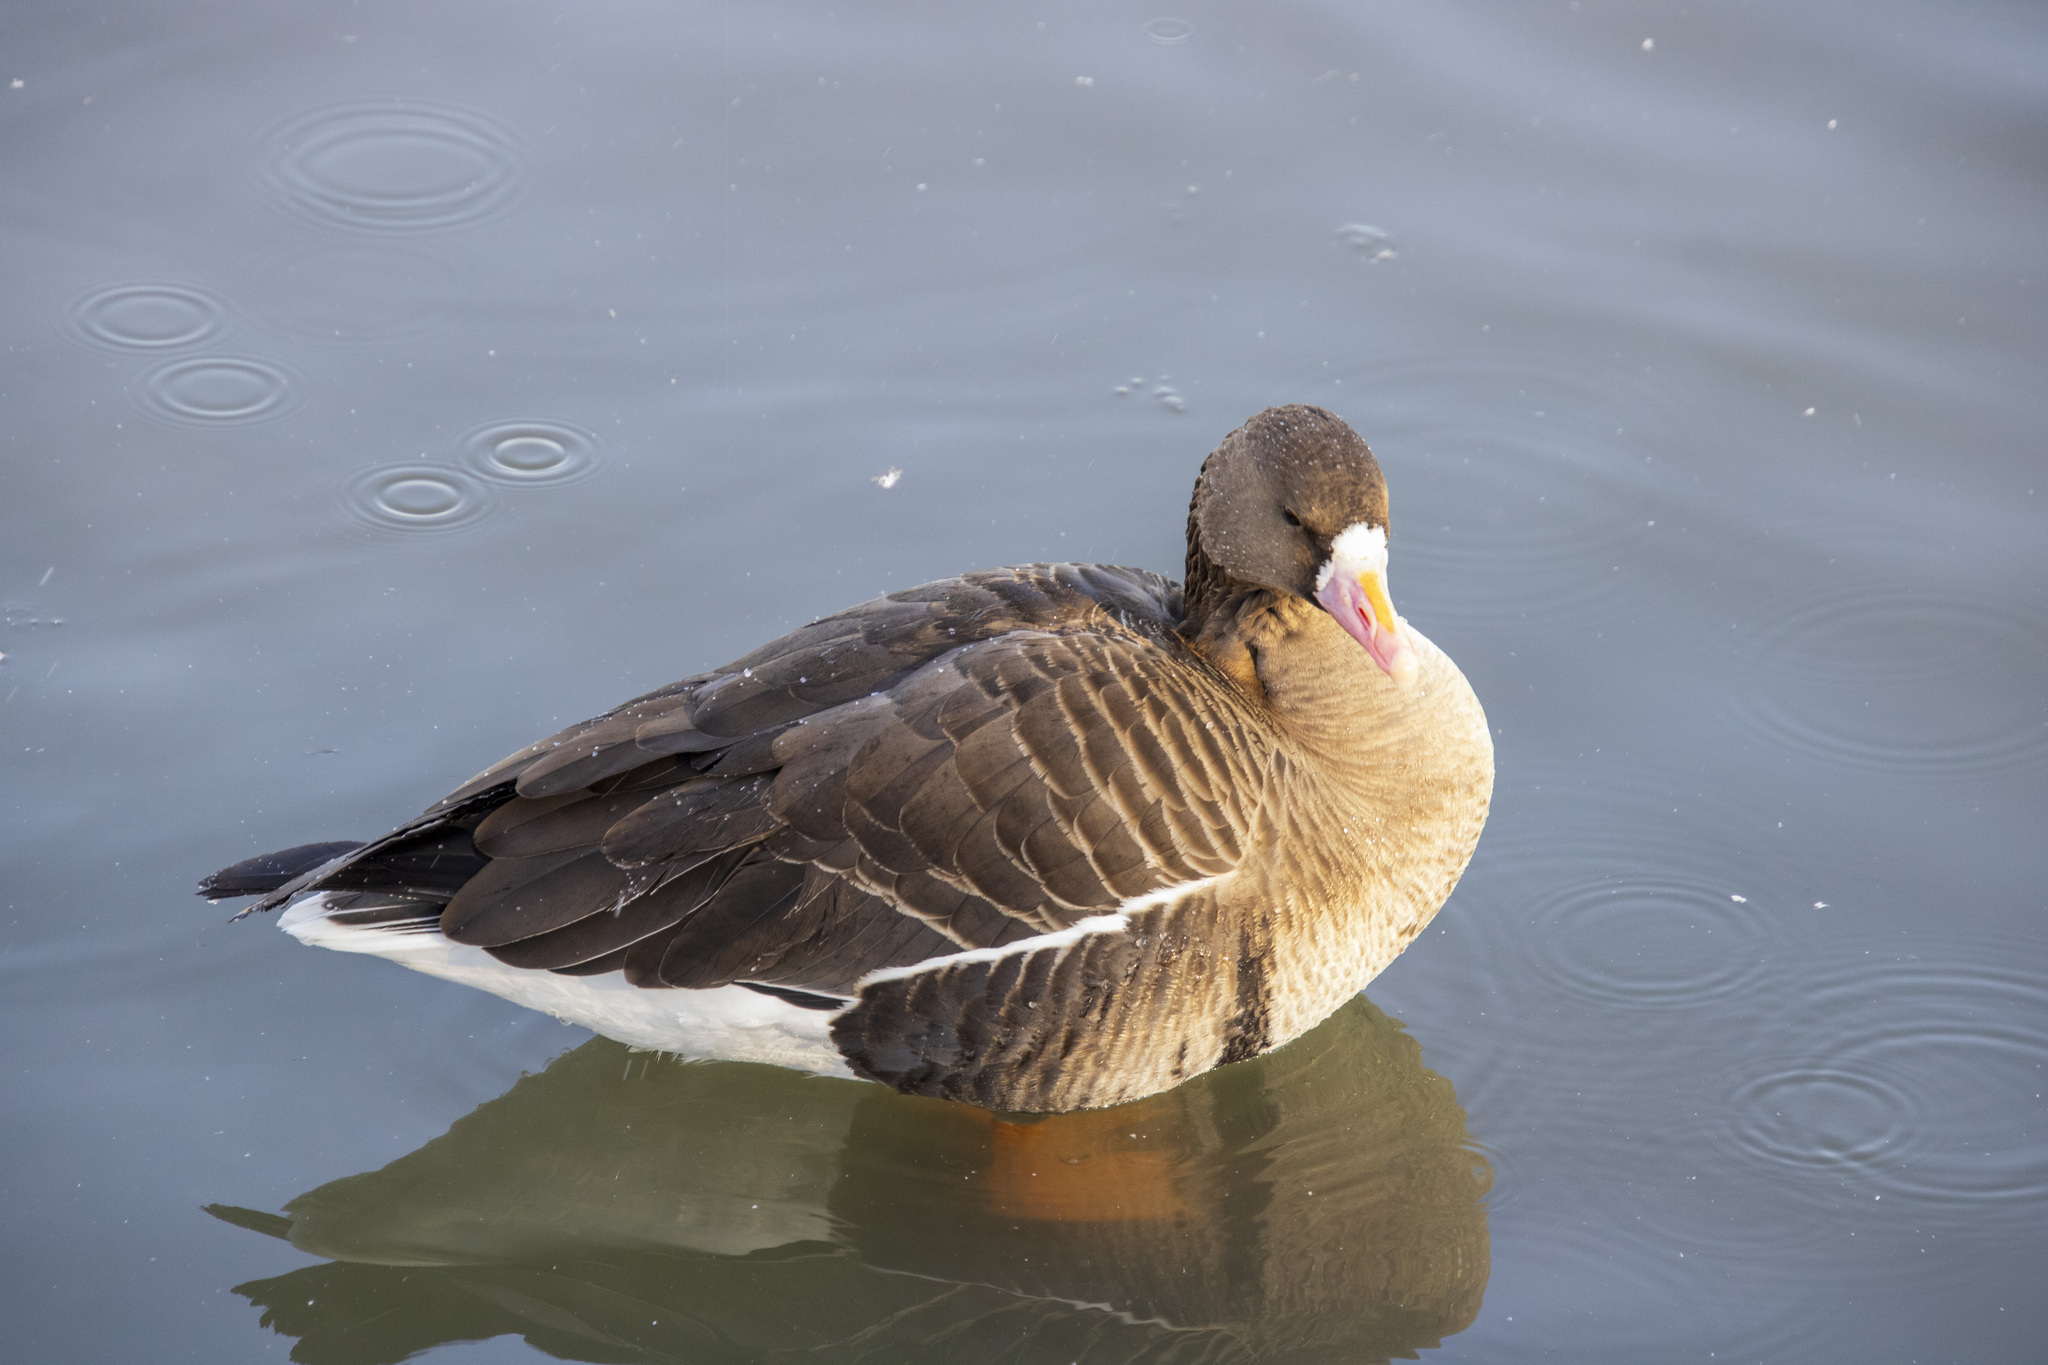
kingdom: Animalia
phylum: Chordata
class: Aves
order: Anseriformes
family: Anatidae
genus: Anser
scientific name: Anser albifrons
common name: Greater white-fronted goose
